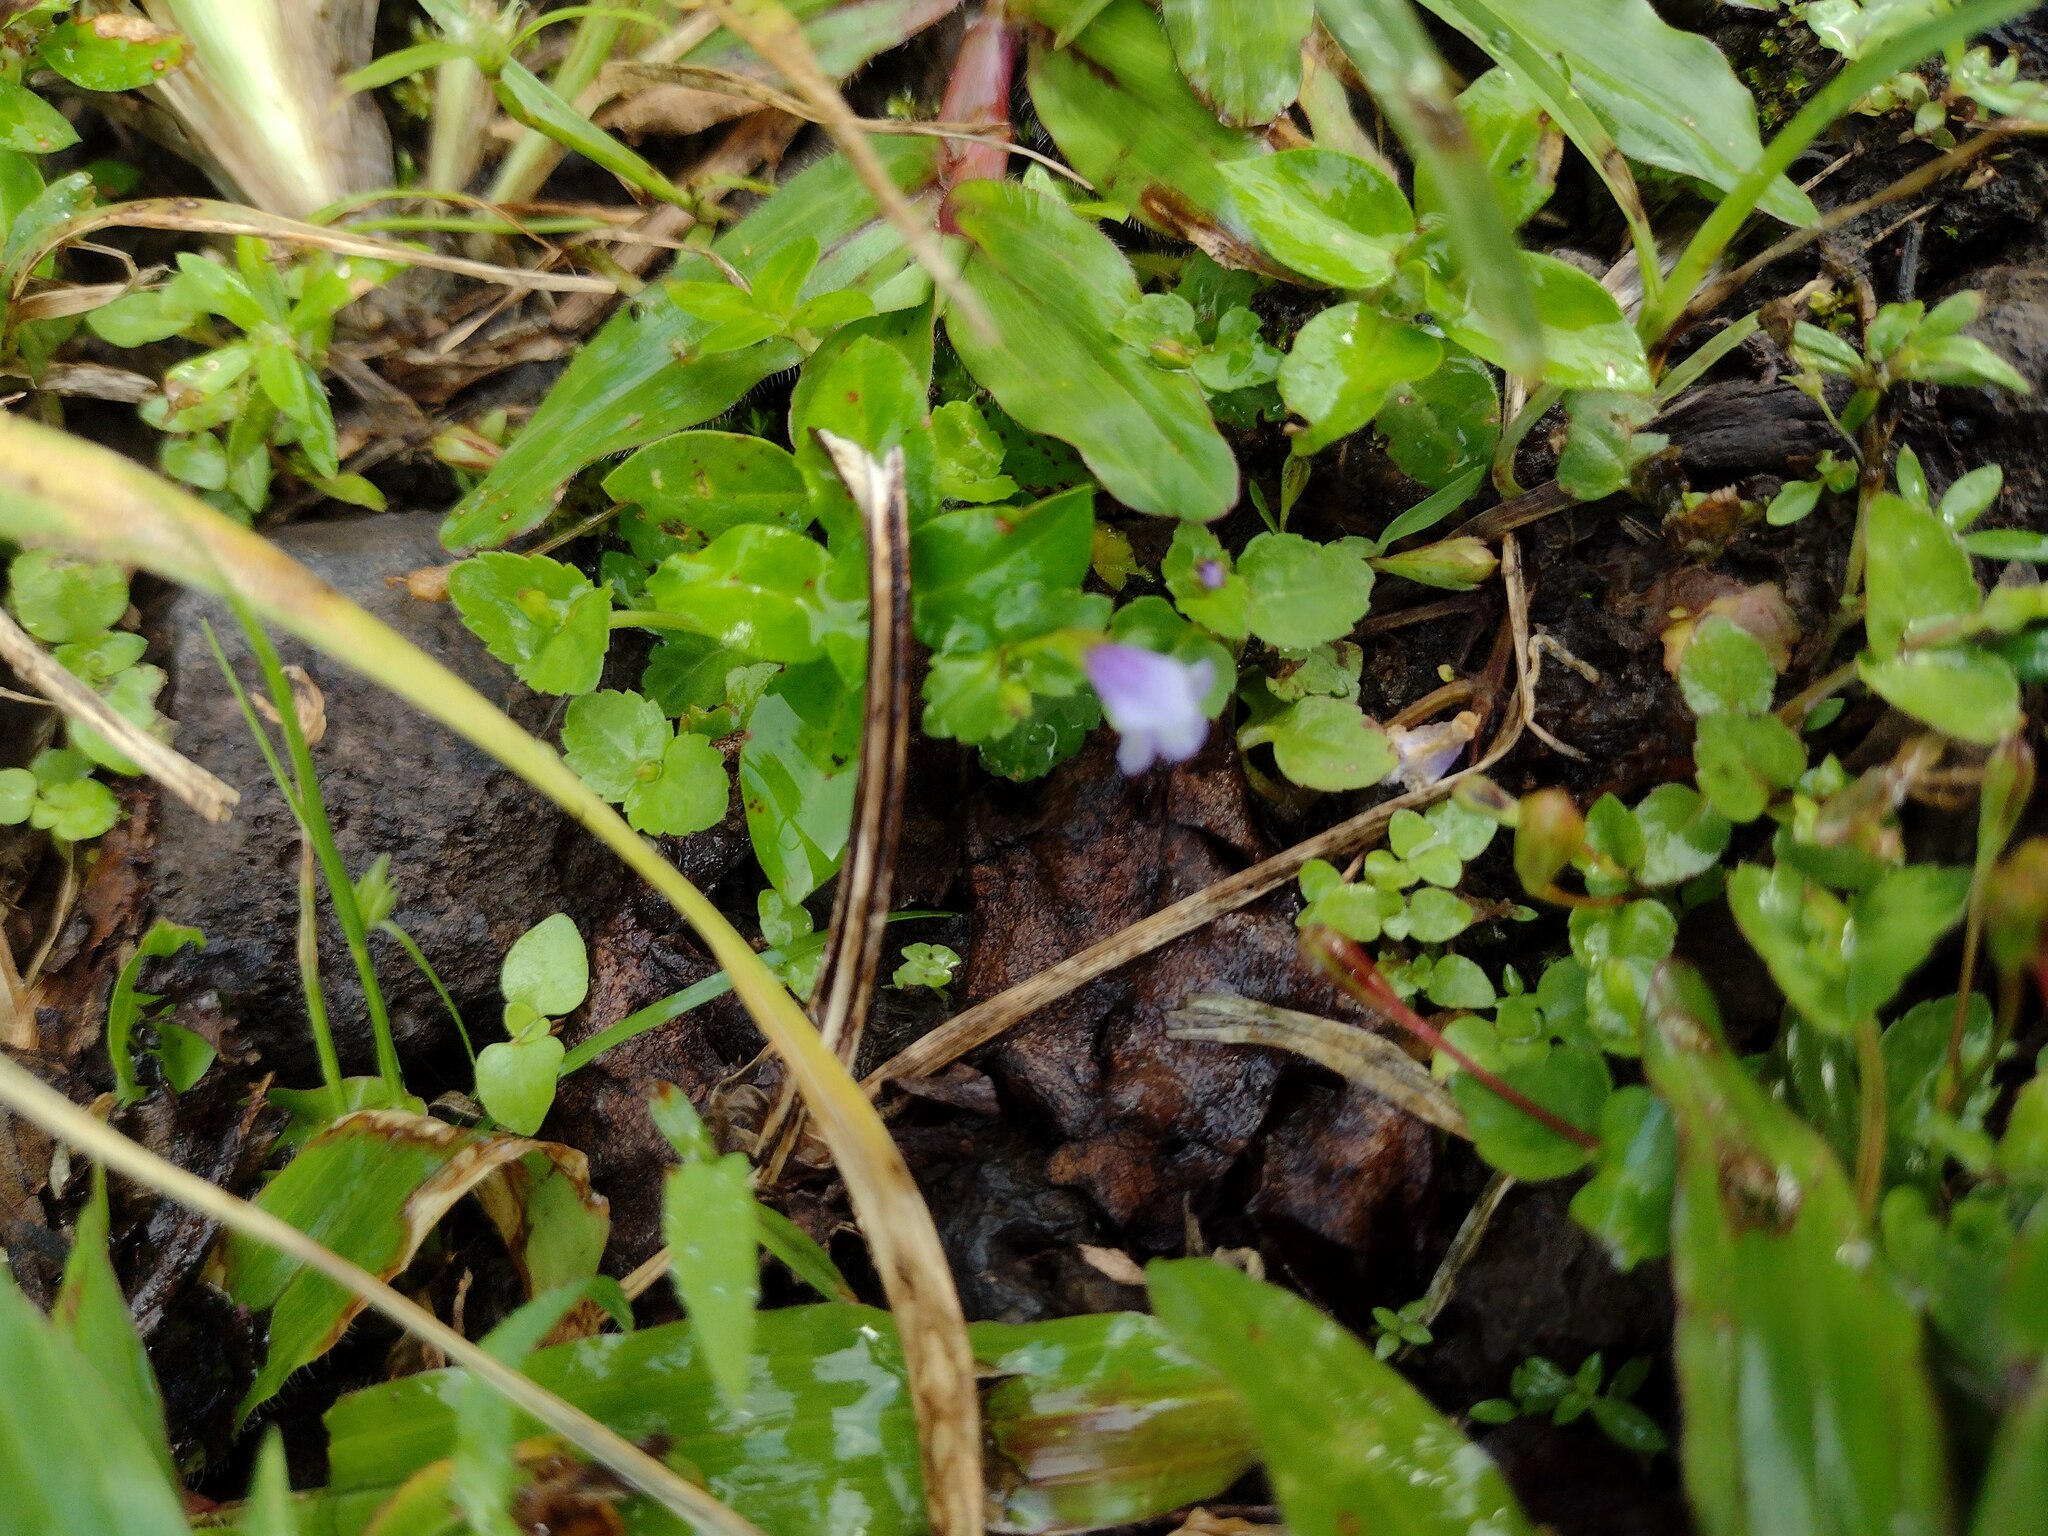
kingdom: Plantae
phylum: Tracheophyta
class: Magnoliopsida
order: Lamiales
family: Linderniaceae
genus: Torenia
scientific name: Torenia crustacea
